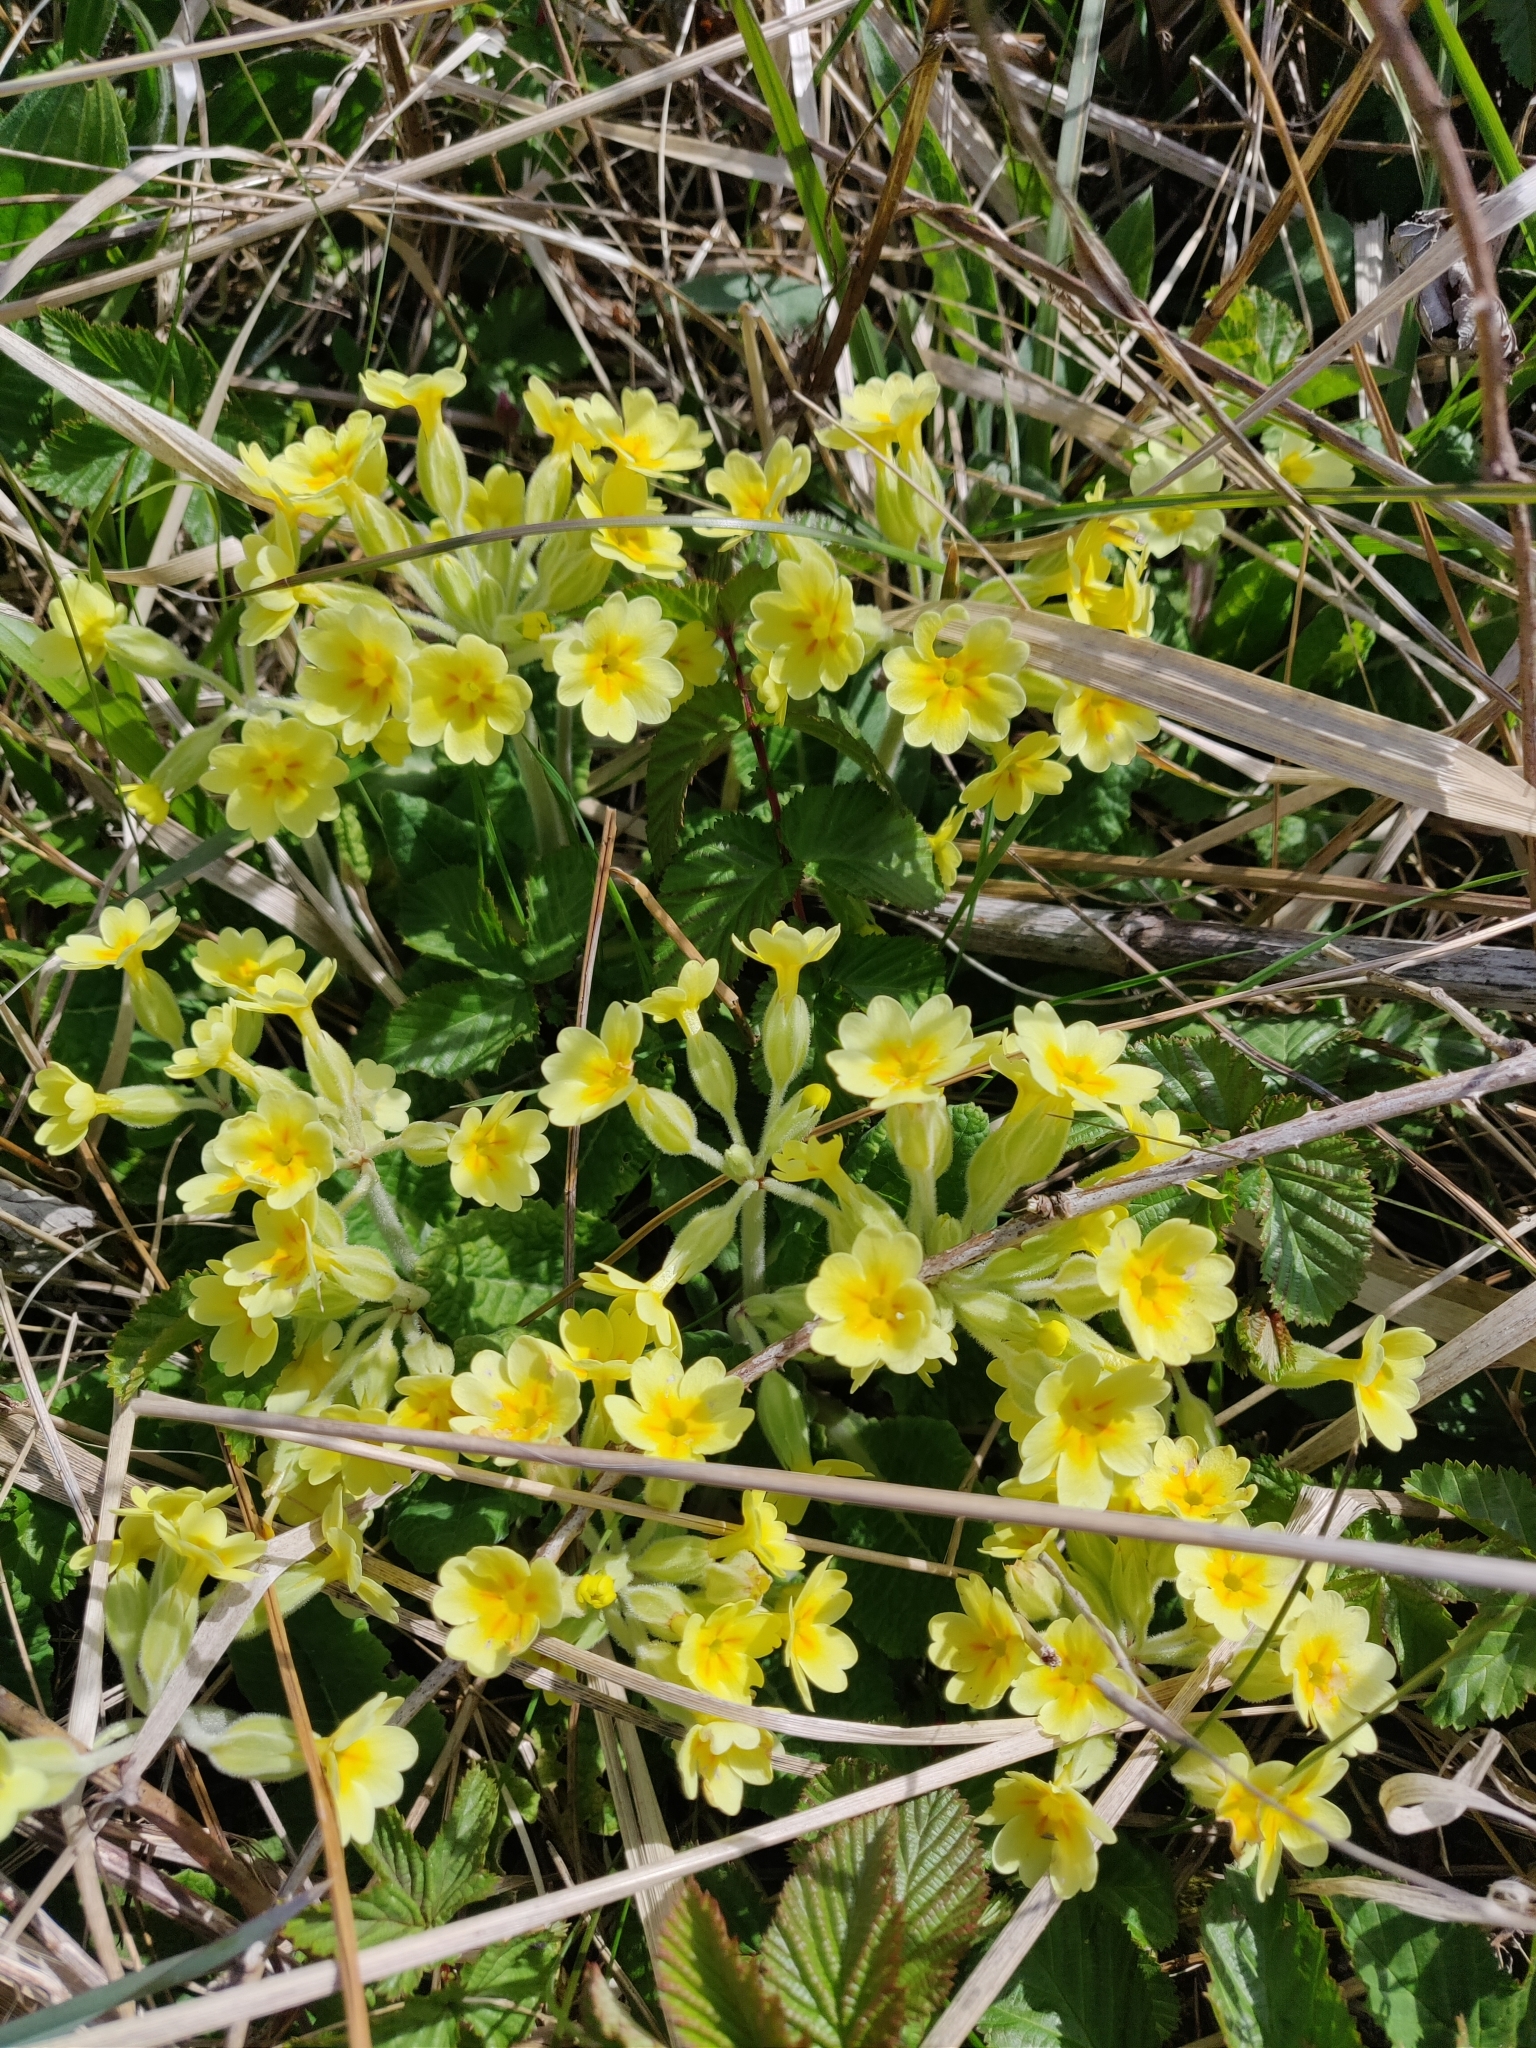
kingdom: Plantae
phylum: Tracheophyta
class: Magnoliopsida
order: Ericales
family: Primulaceae
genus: Primula
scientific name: Primula veris
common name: Cowslip
